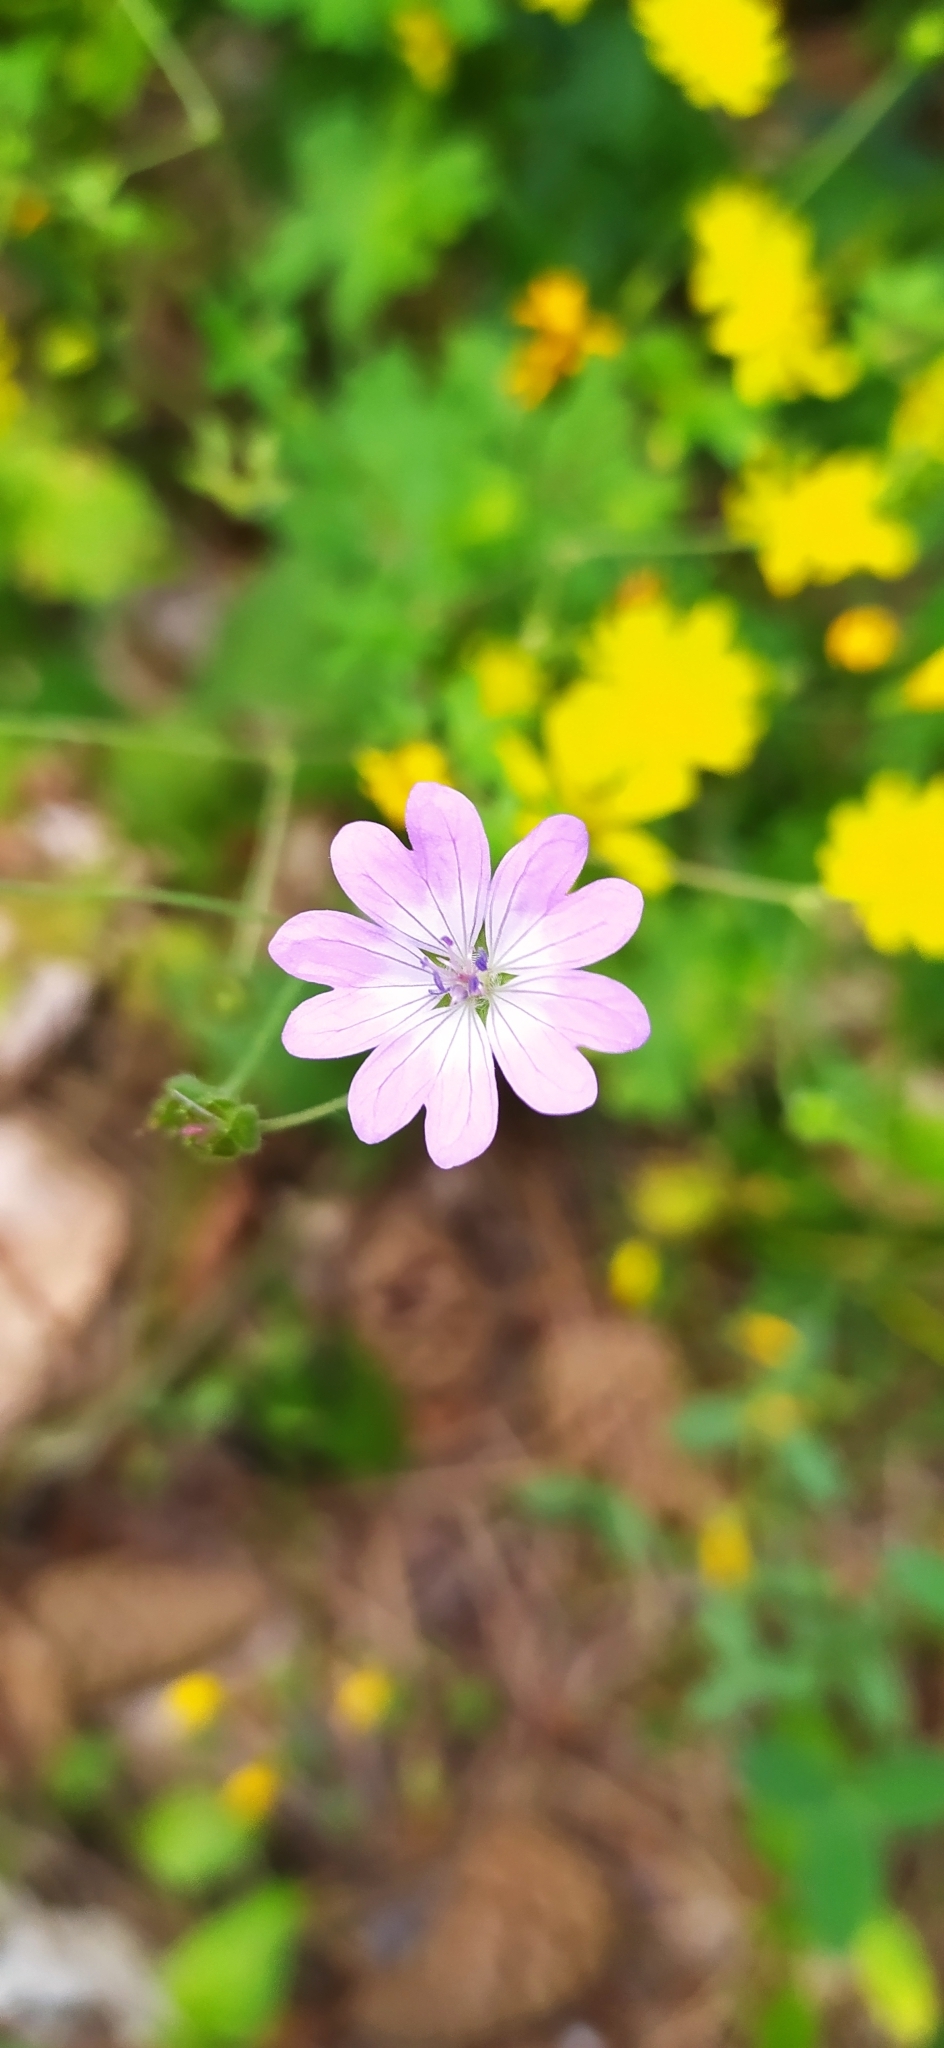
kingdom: Plantae
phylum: Tracheophyta
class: Magnoliopsida
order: Geraniales
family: Geraniaceae
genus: Geranium
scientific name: Geranium pyrenaicum
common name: Hedgerow crane's-bill
